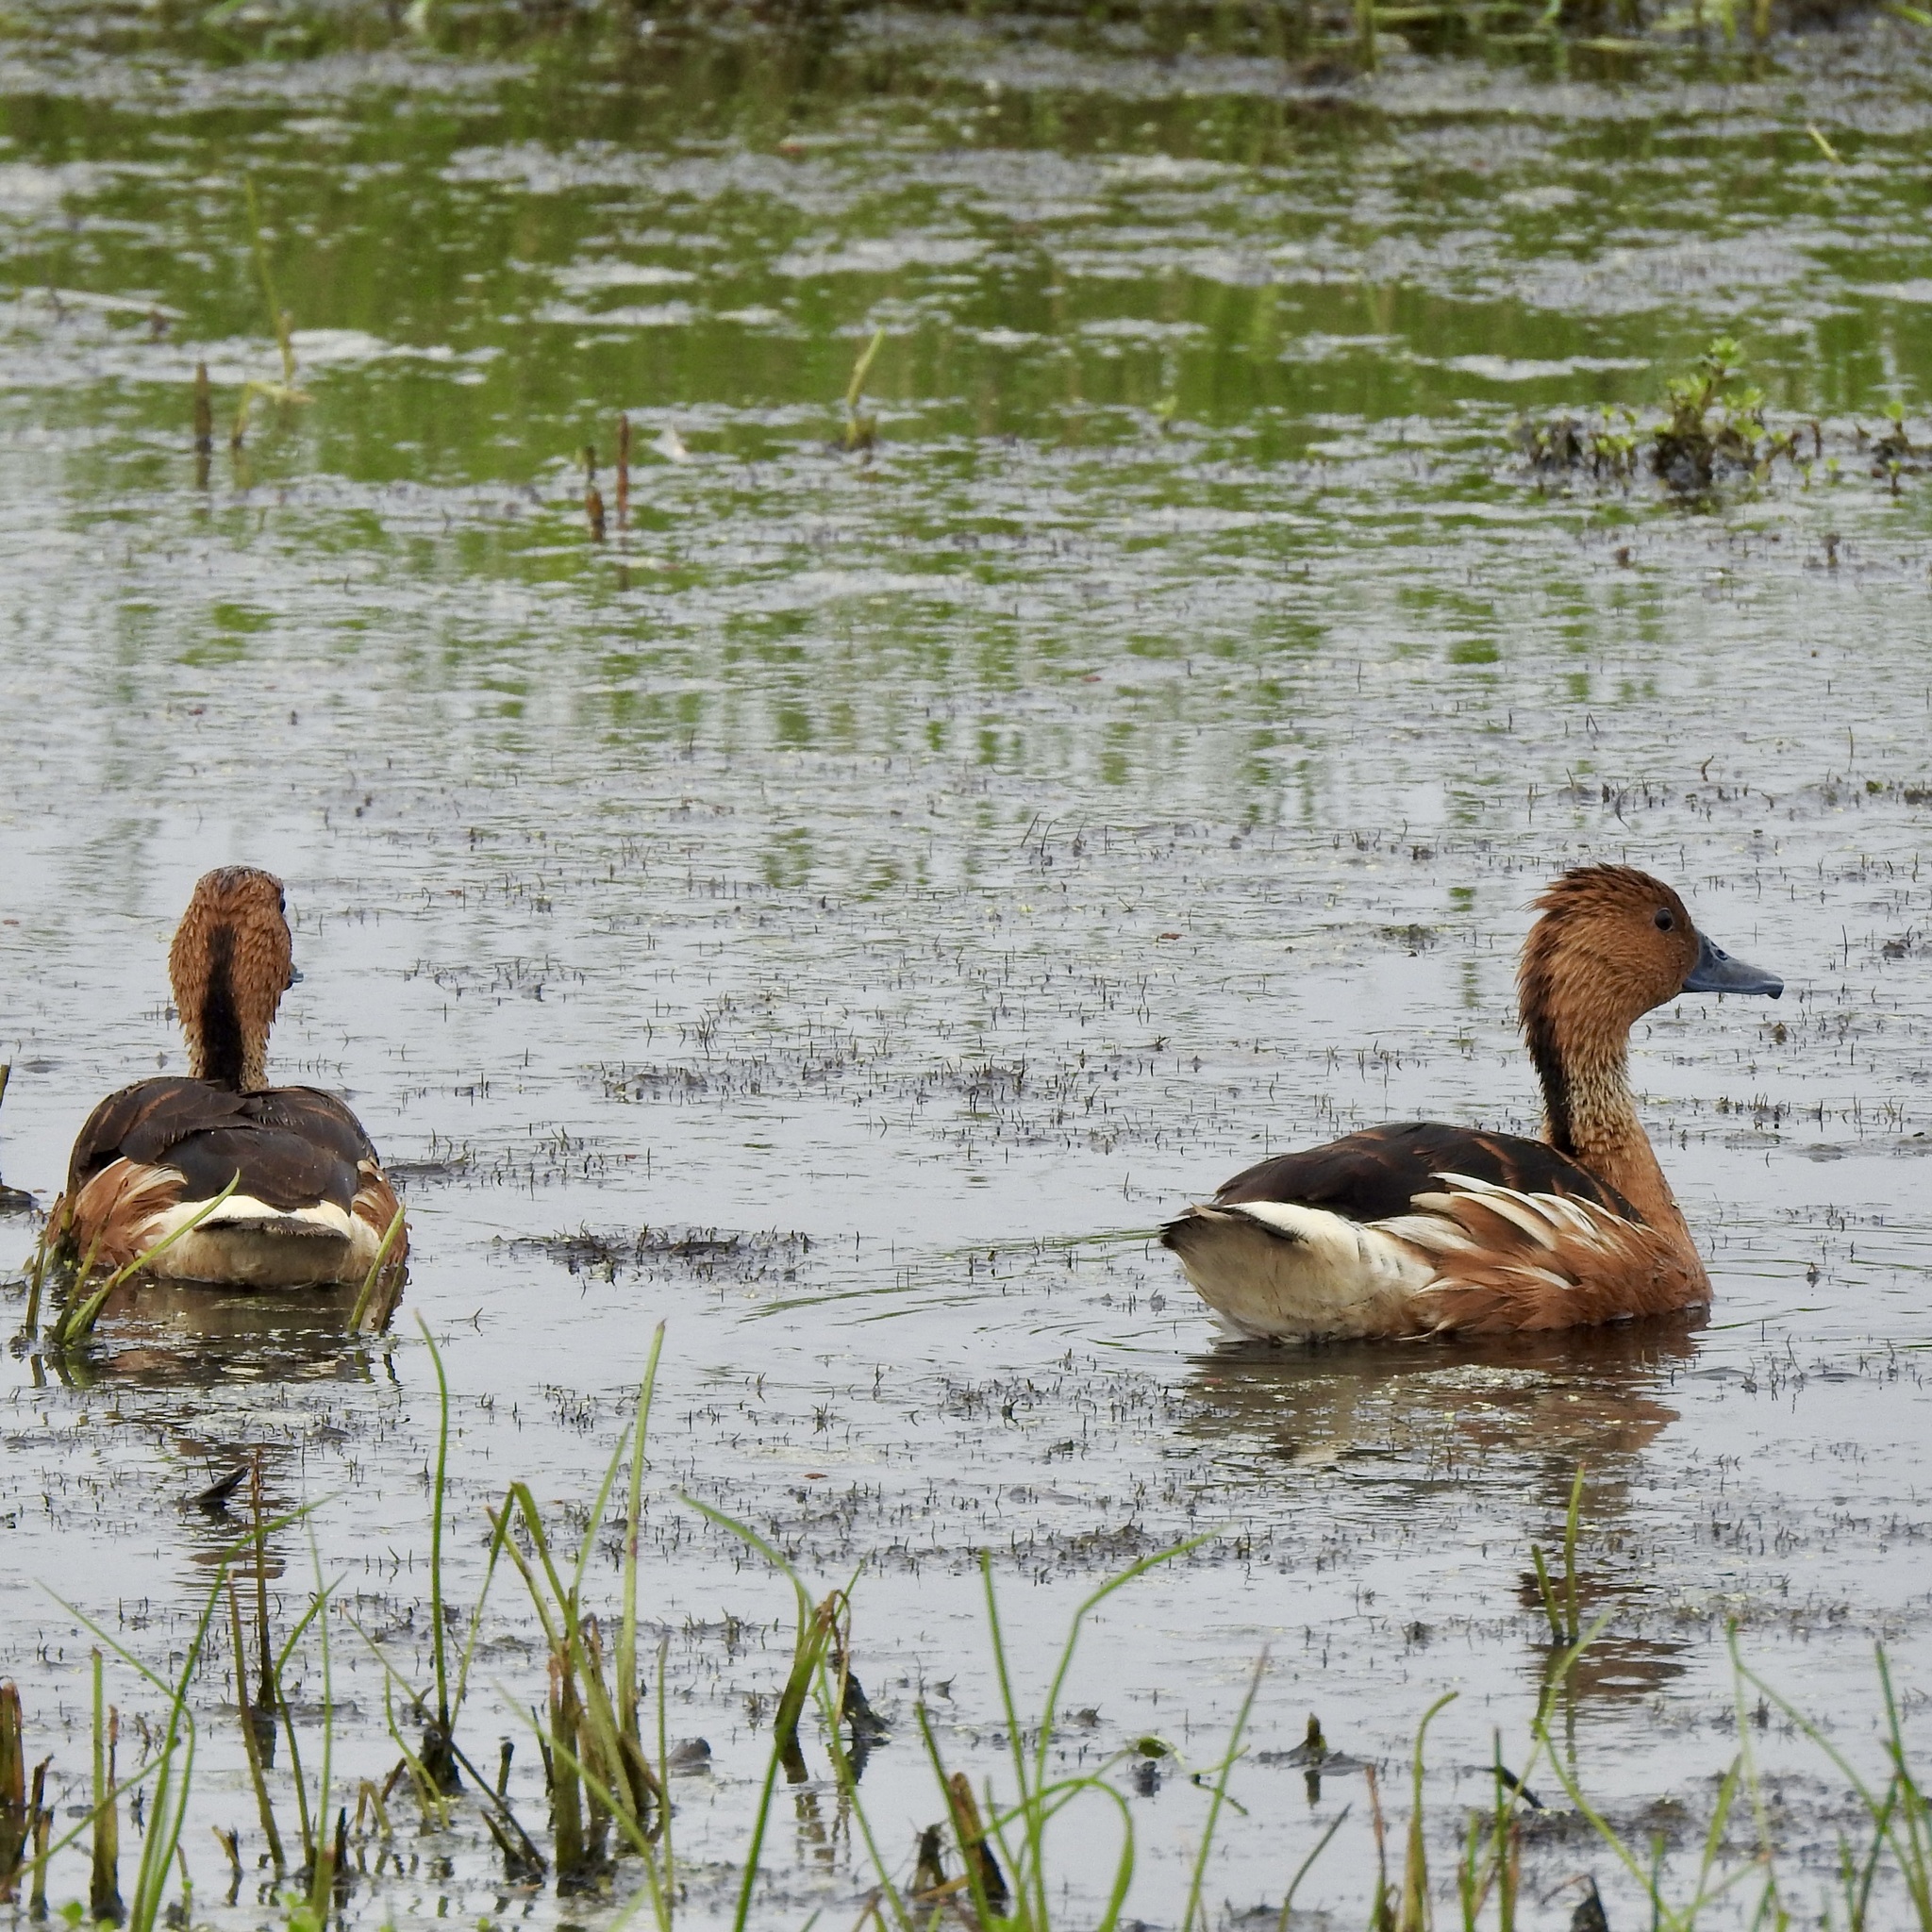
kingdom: Animalia
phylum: Chordata
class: Aves
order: Anseriformes
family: Anatidae
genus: Dendrocygna
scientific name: Dendrocygna bicolor
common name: Fulvous whistling duck
